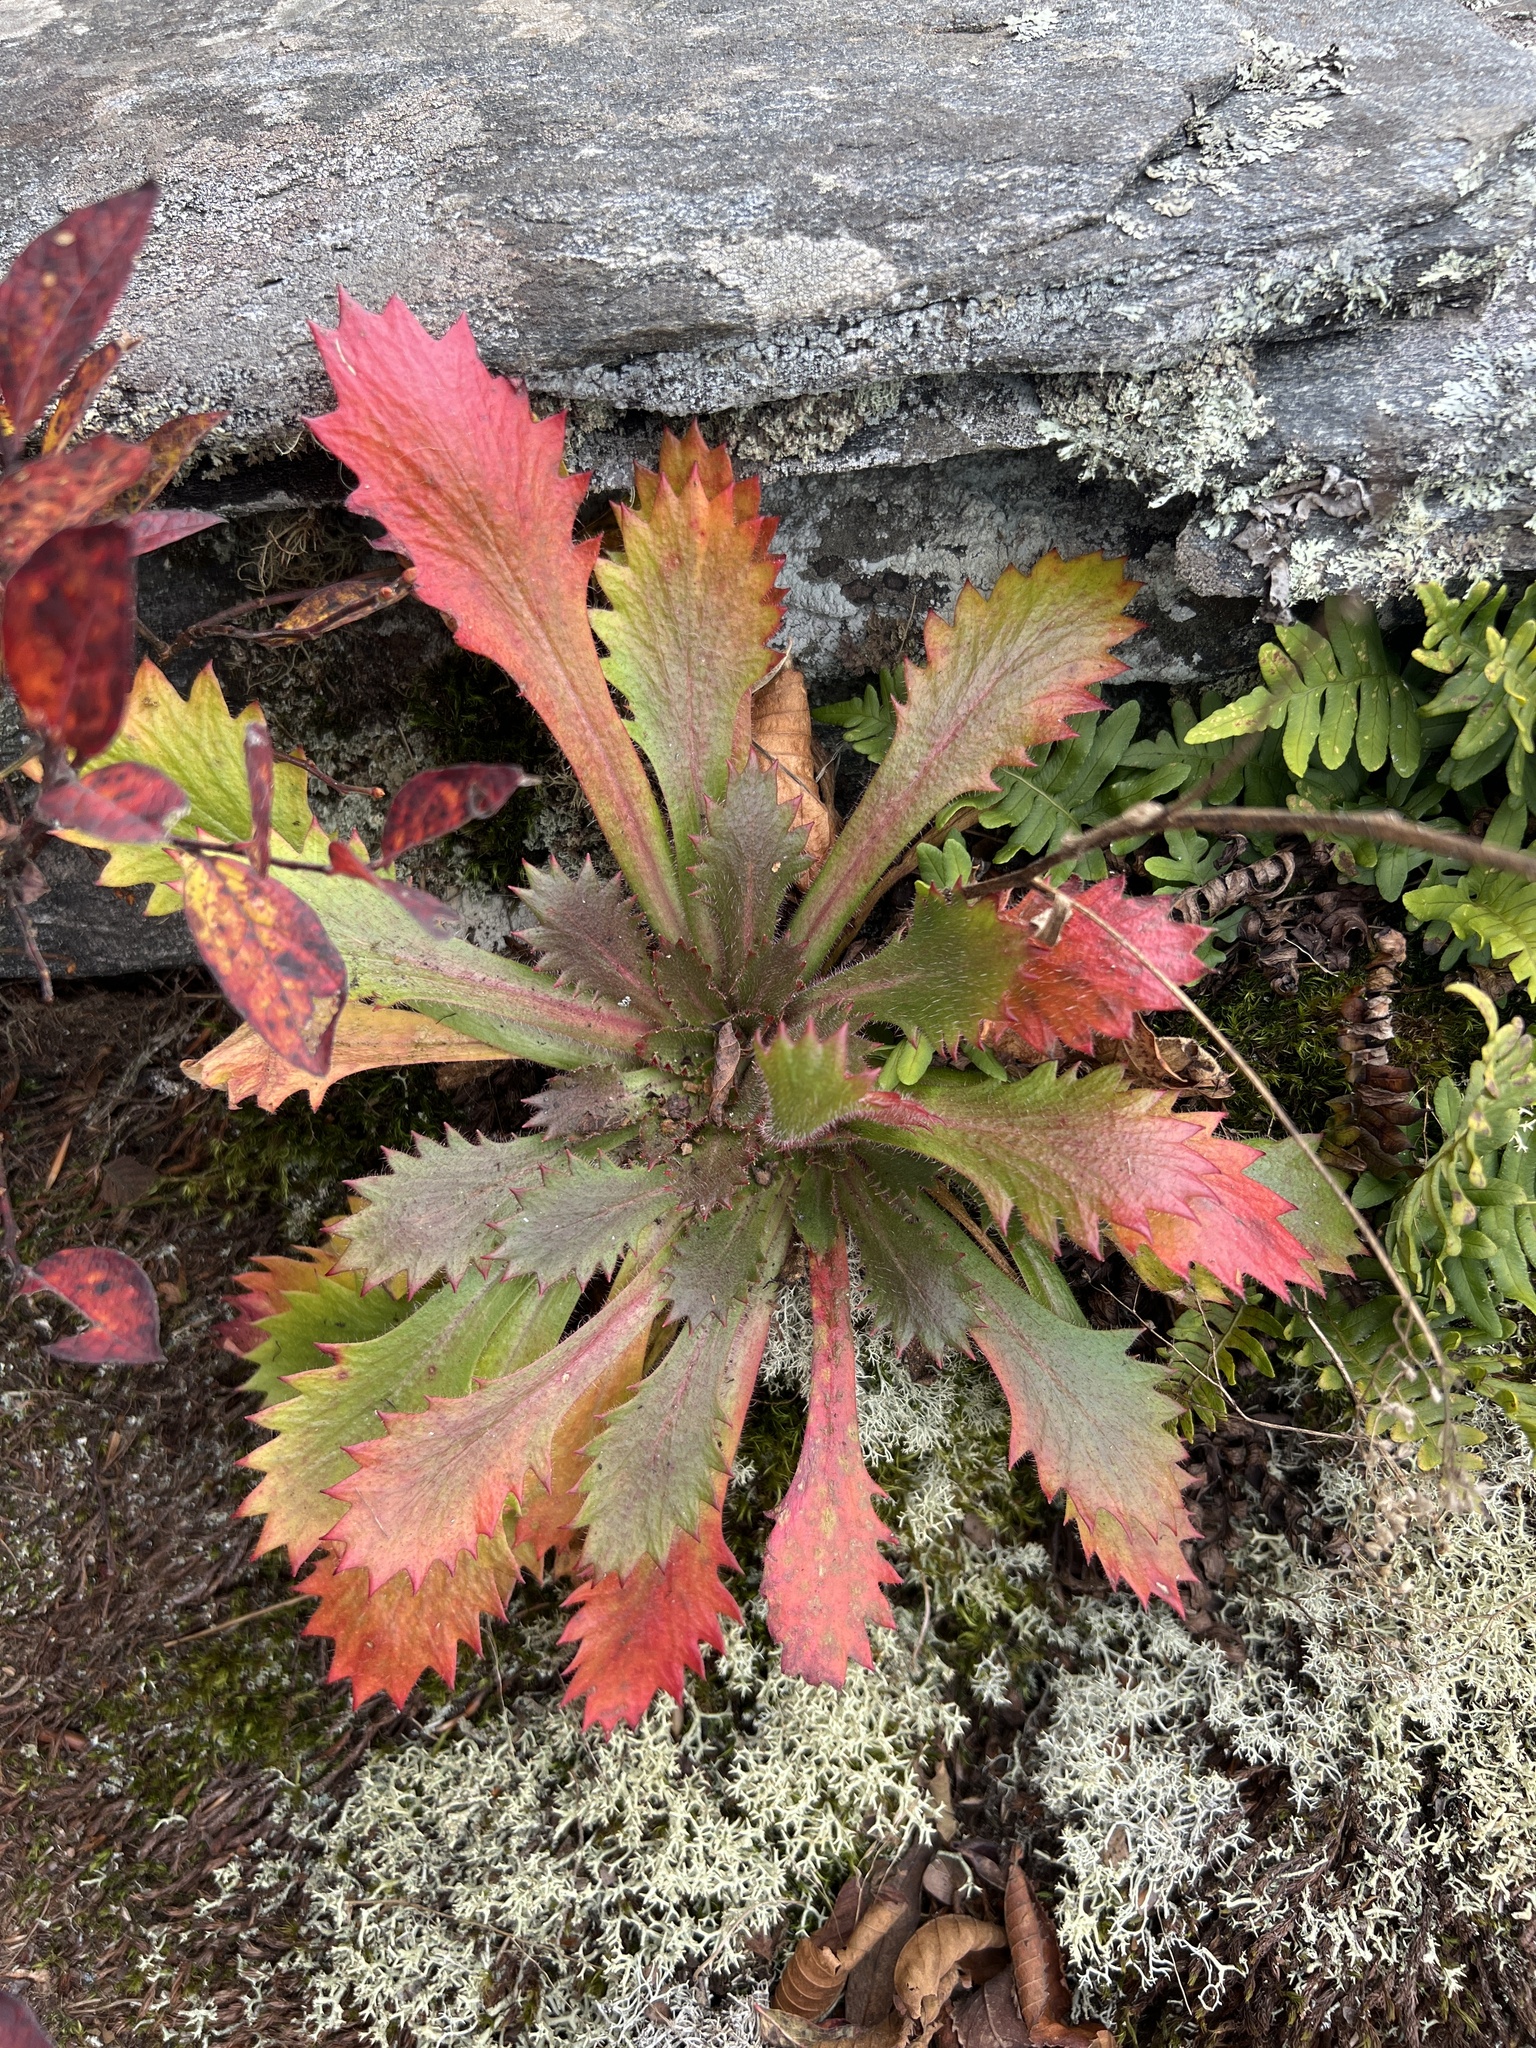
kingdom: Plantae
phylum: Tracheophyta
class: Magnoliopsida
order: Saxifragales
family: Saxifragaceae
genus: Micranthes
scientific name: Micranthes petiolaris
